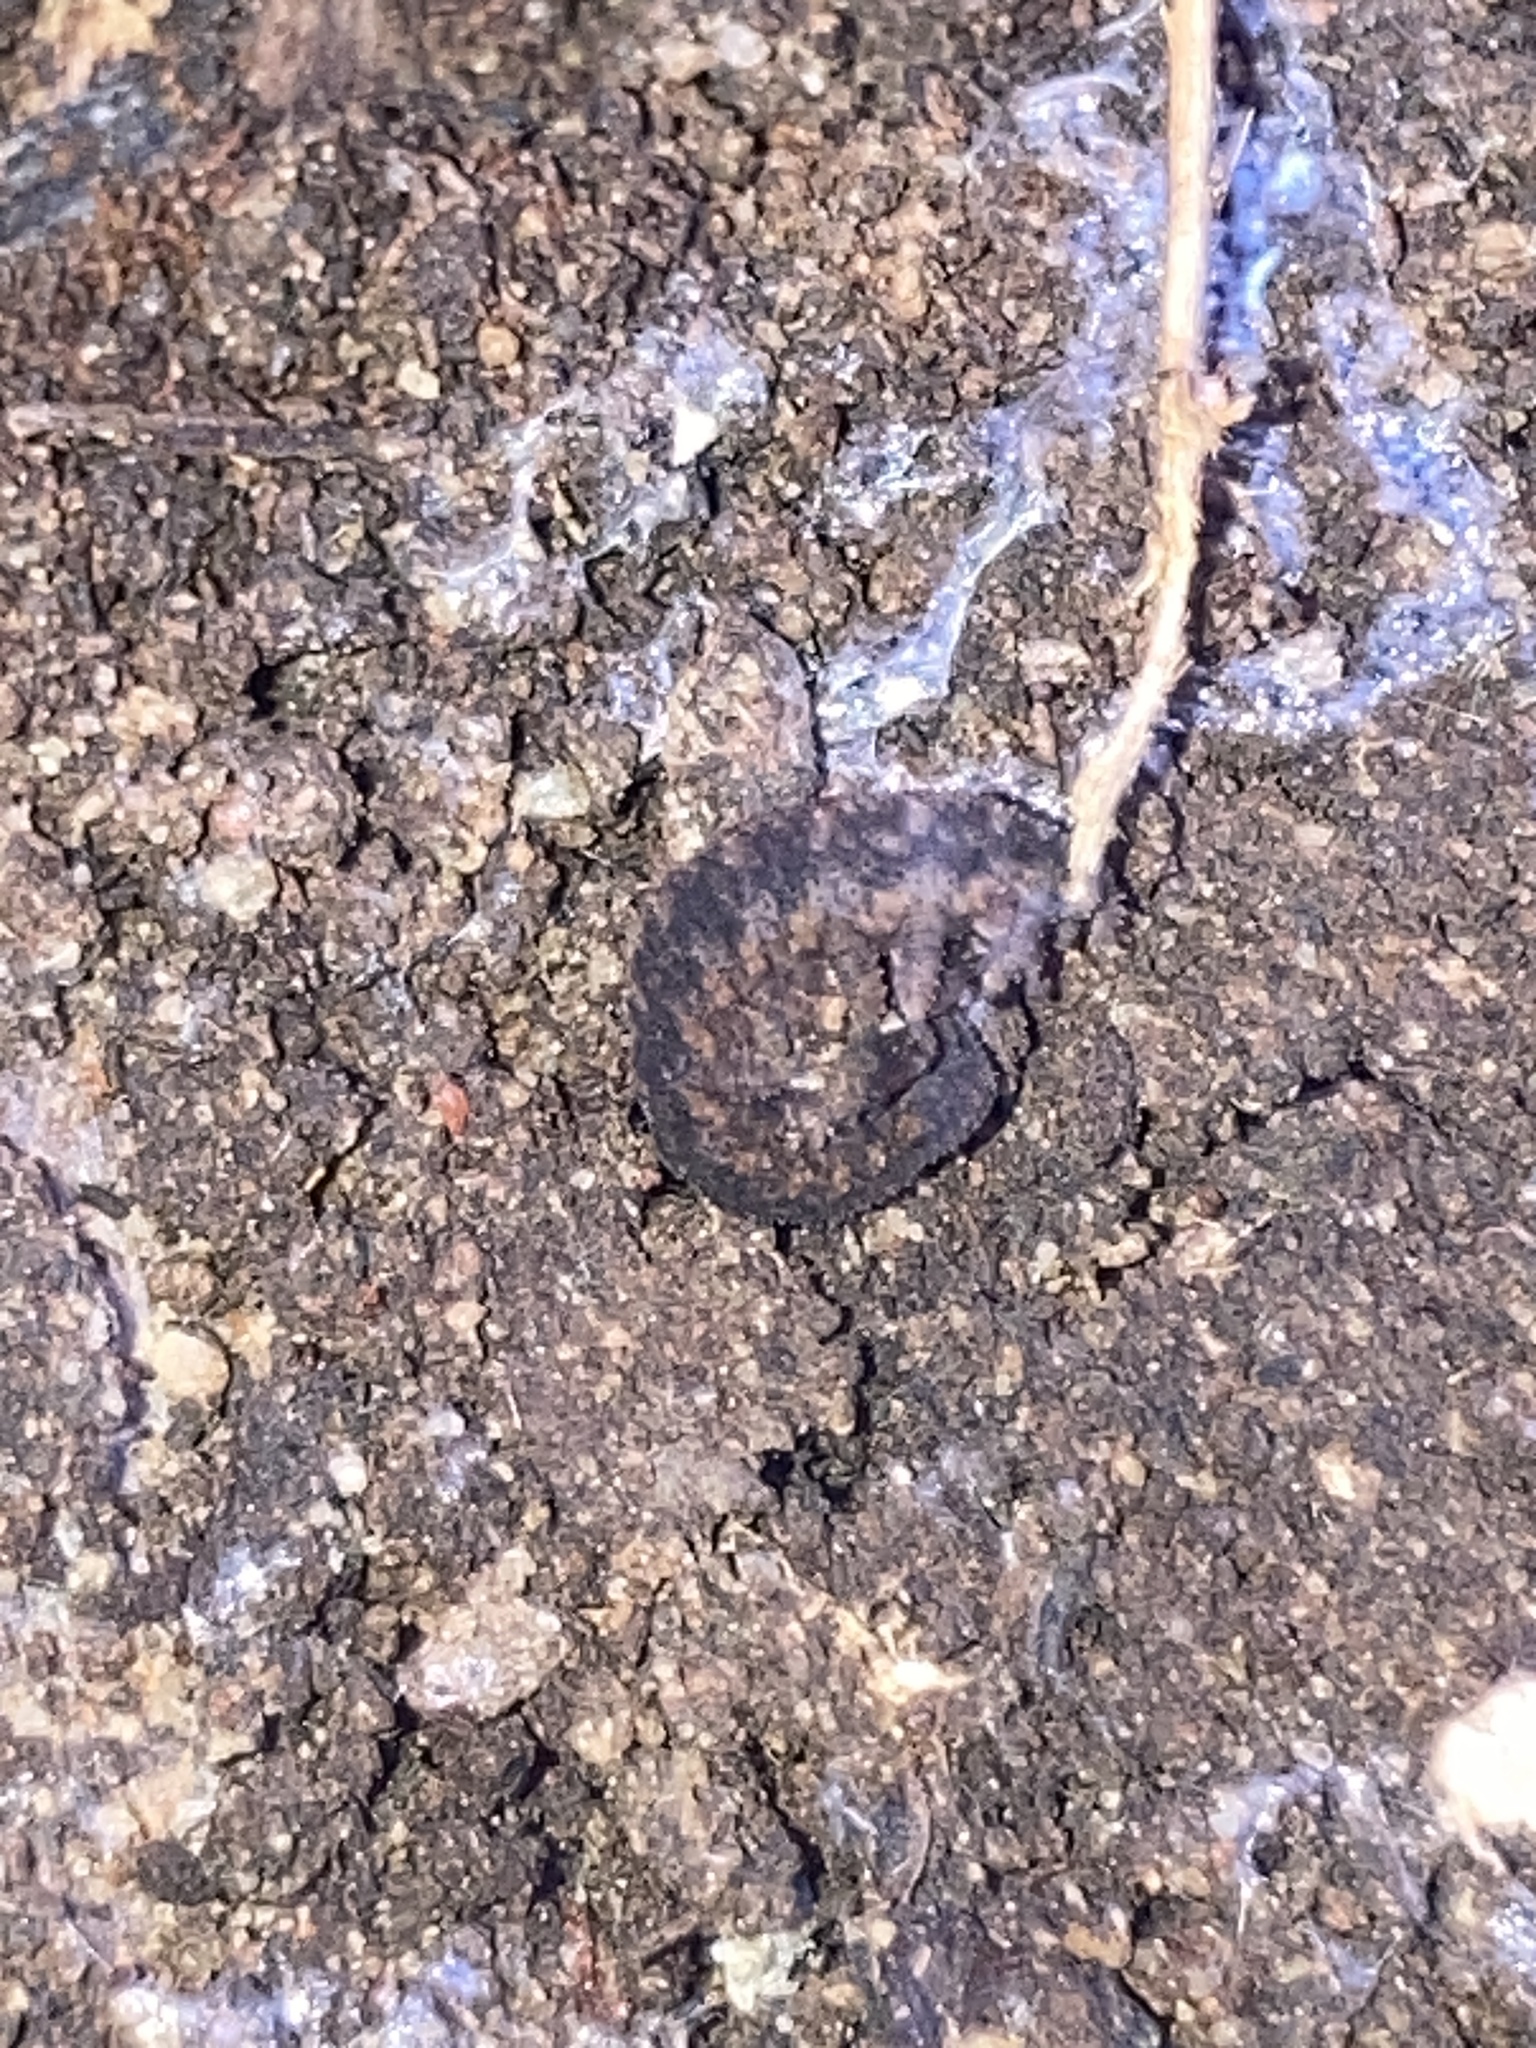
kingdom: Animalia
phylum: Onychophora
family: Peripatopsidae
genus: Anoplokaros
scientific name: Anoplokaros keerensis
